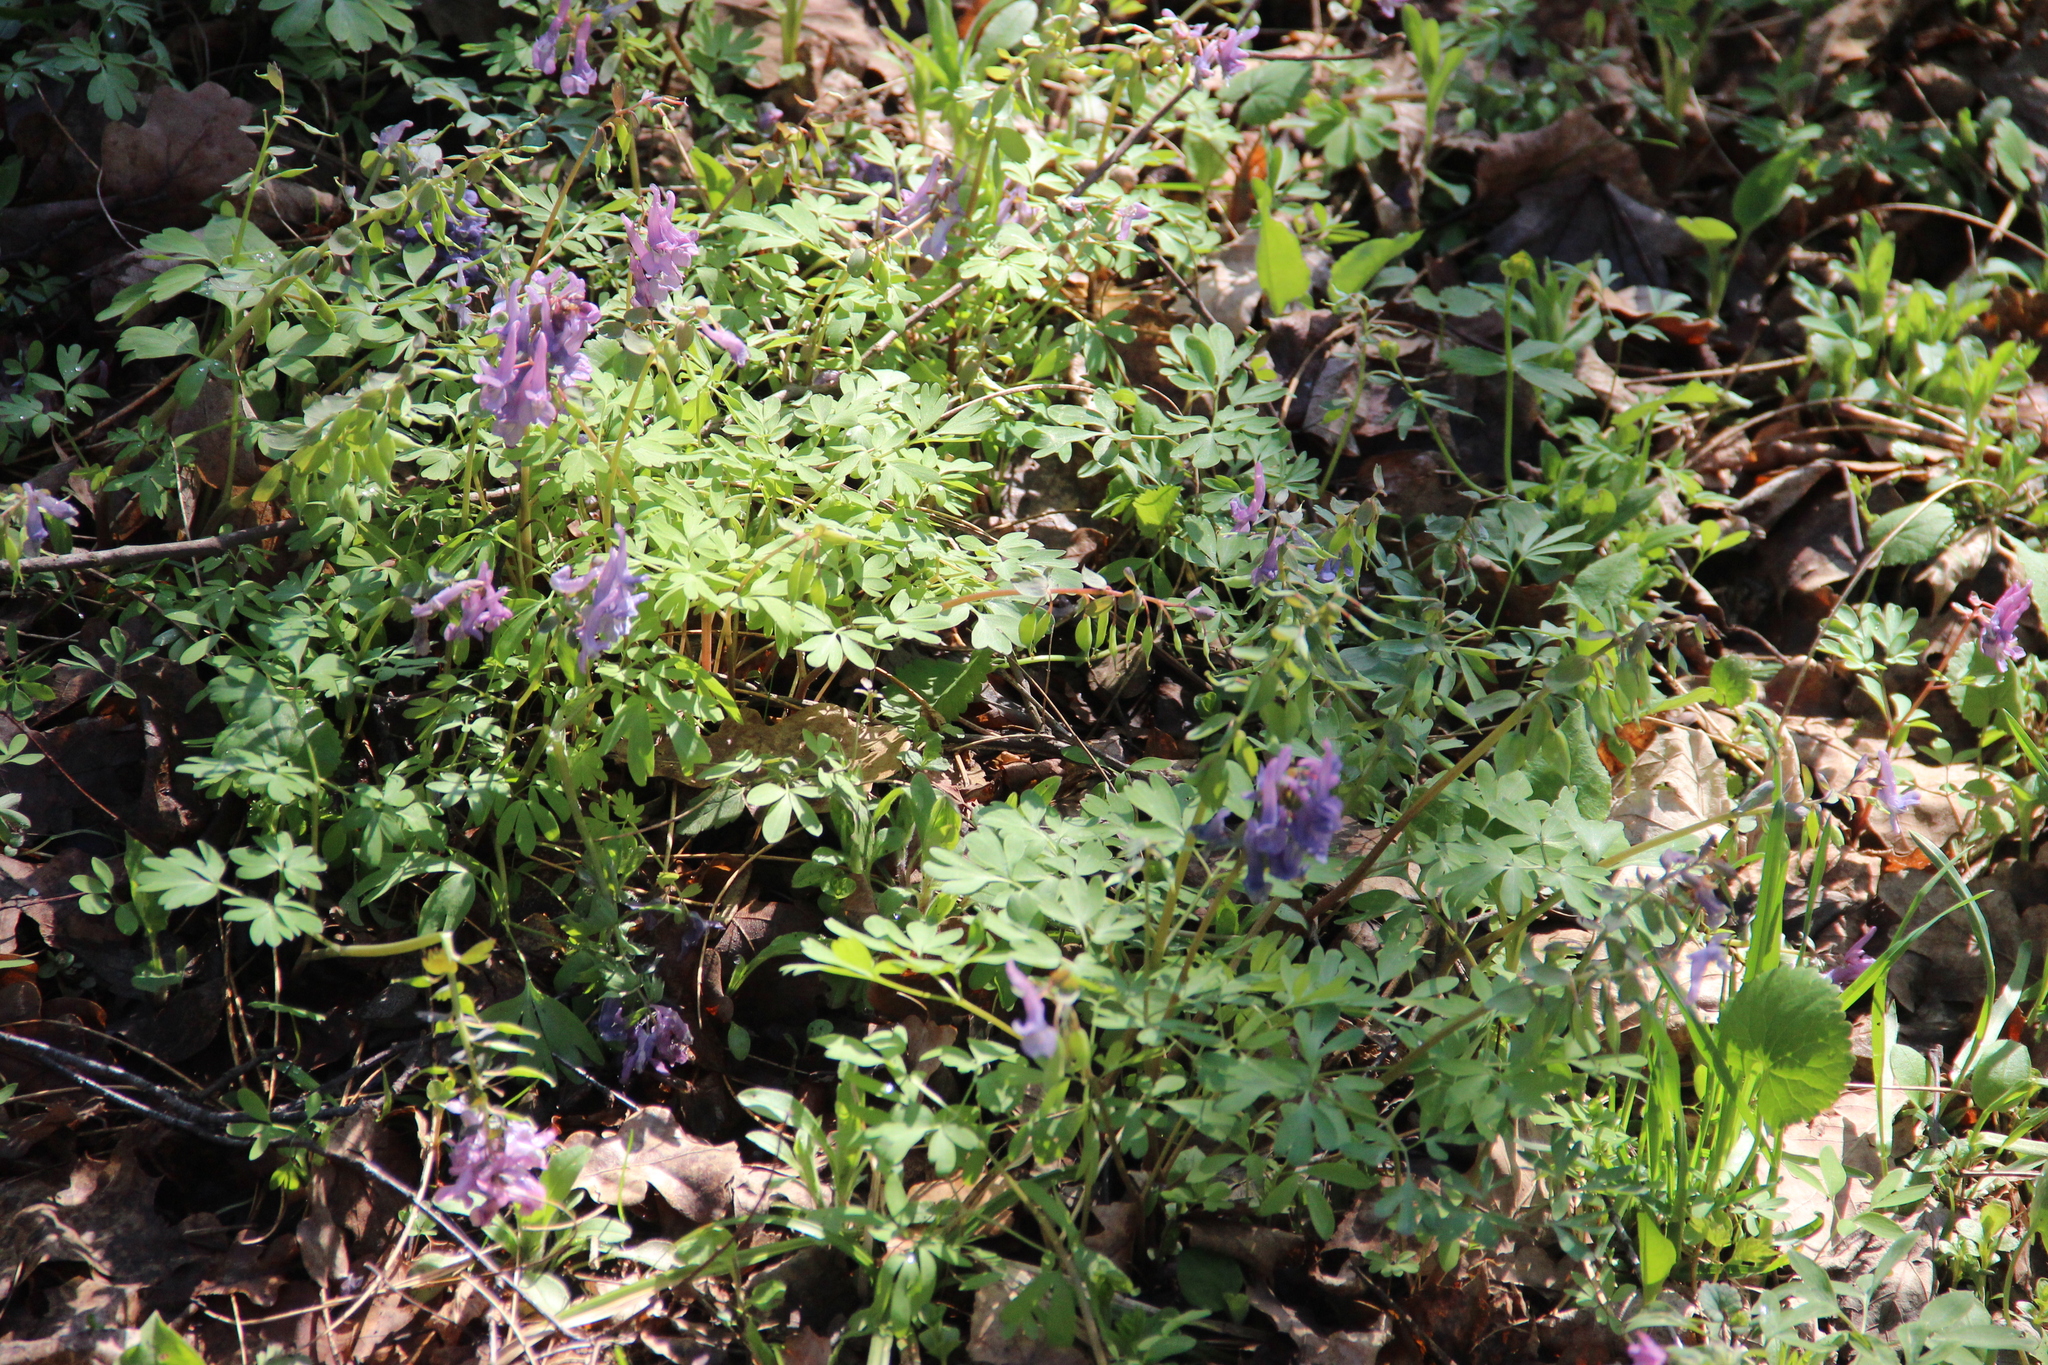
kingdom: Plantae
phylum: Tracheophyta
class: Magnoliopsida
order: Ranunculales
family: Papaveraceae
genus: Corydalis
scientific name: Corydalis solida
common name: Bird-in-a-bush
